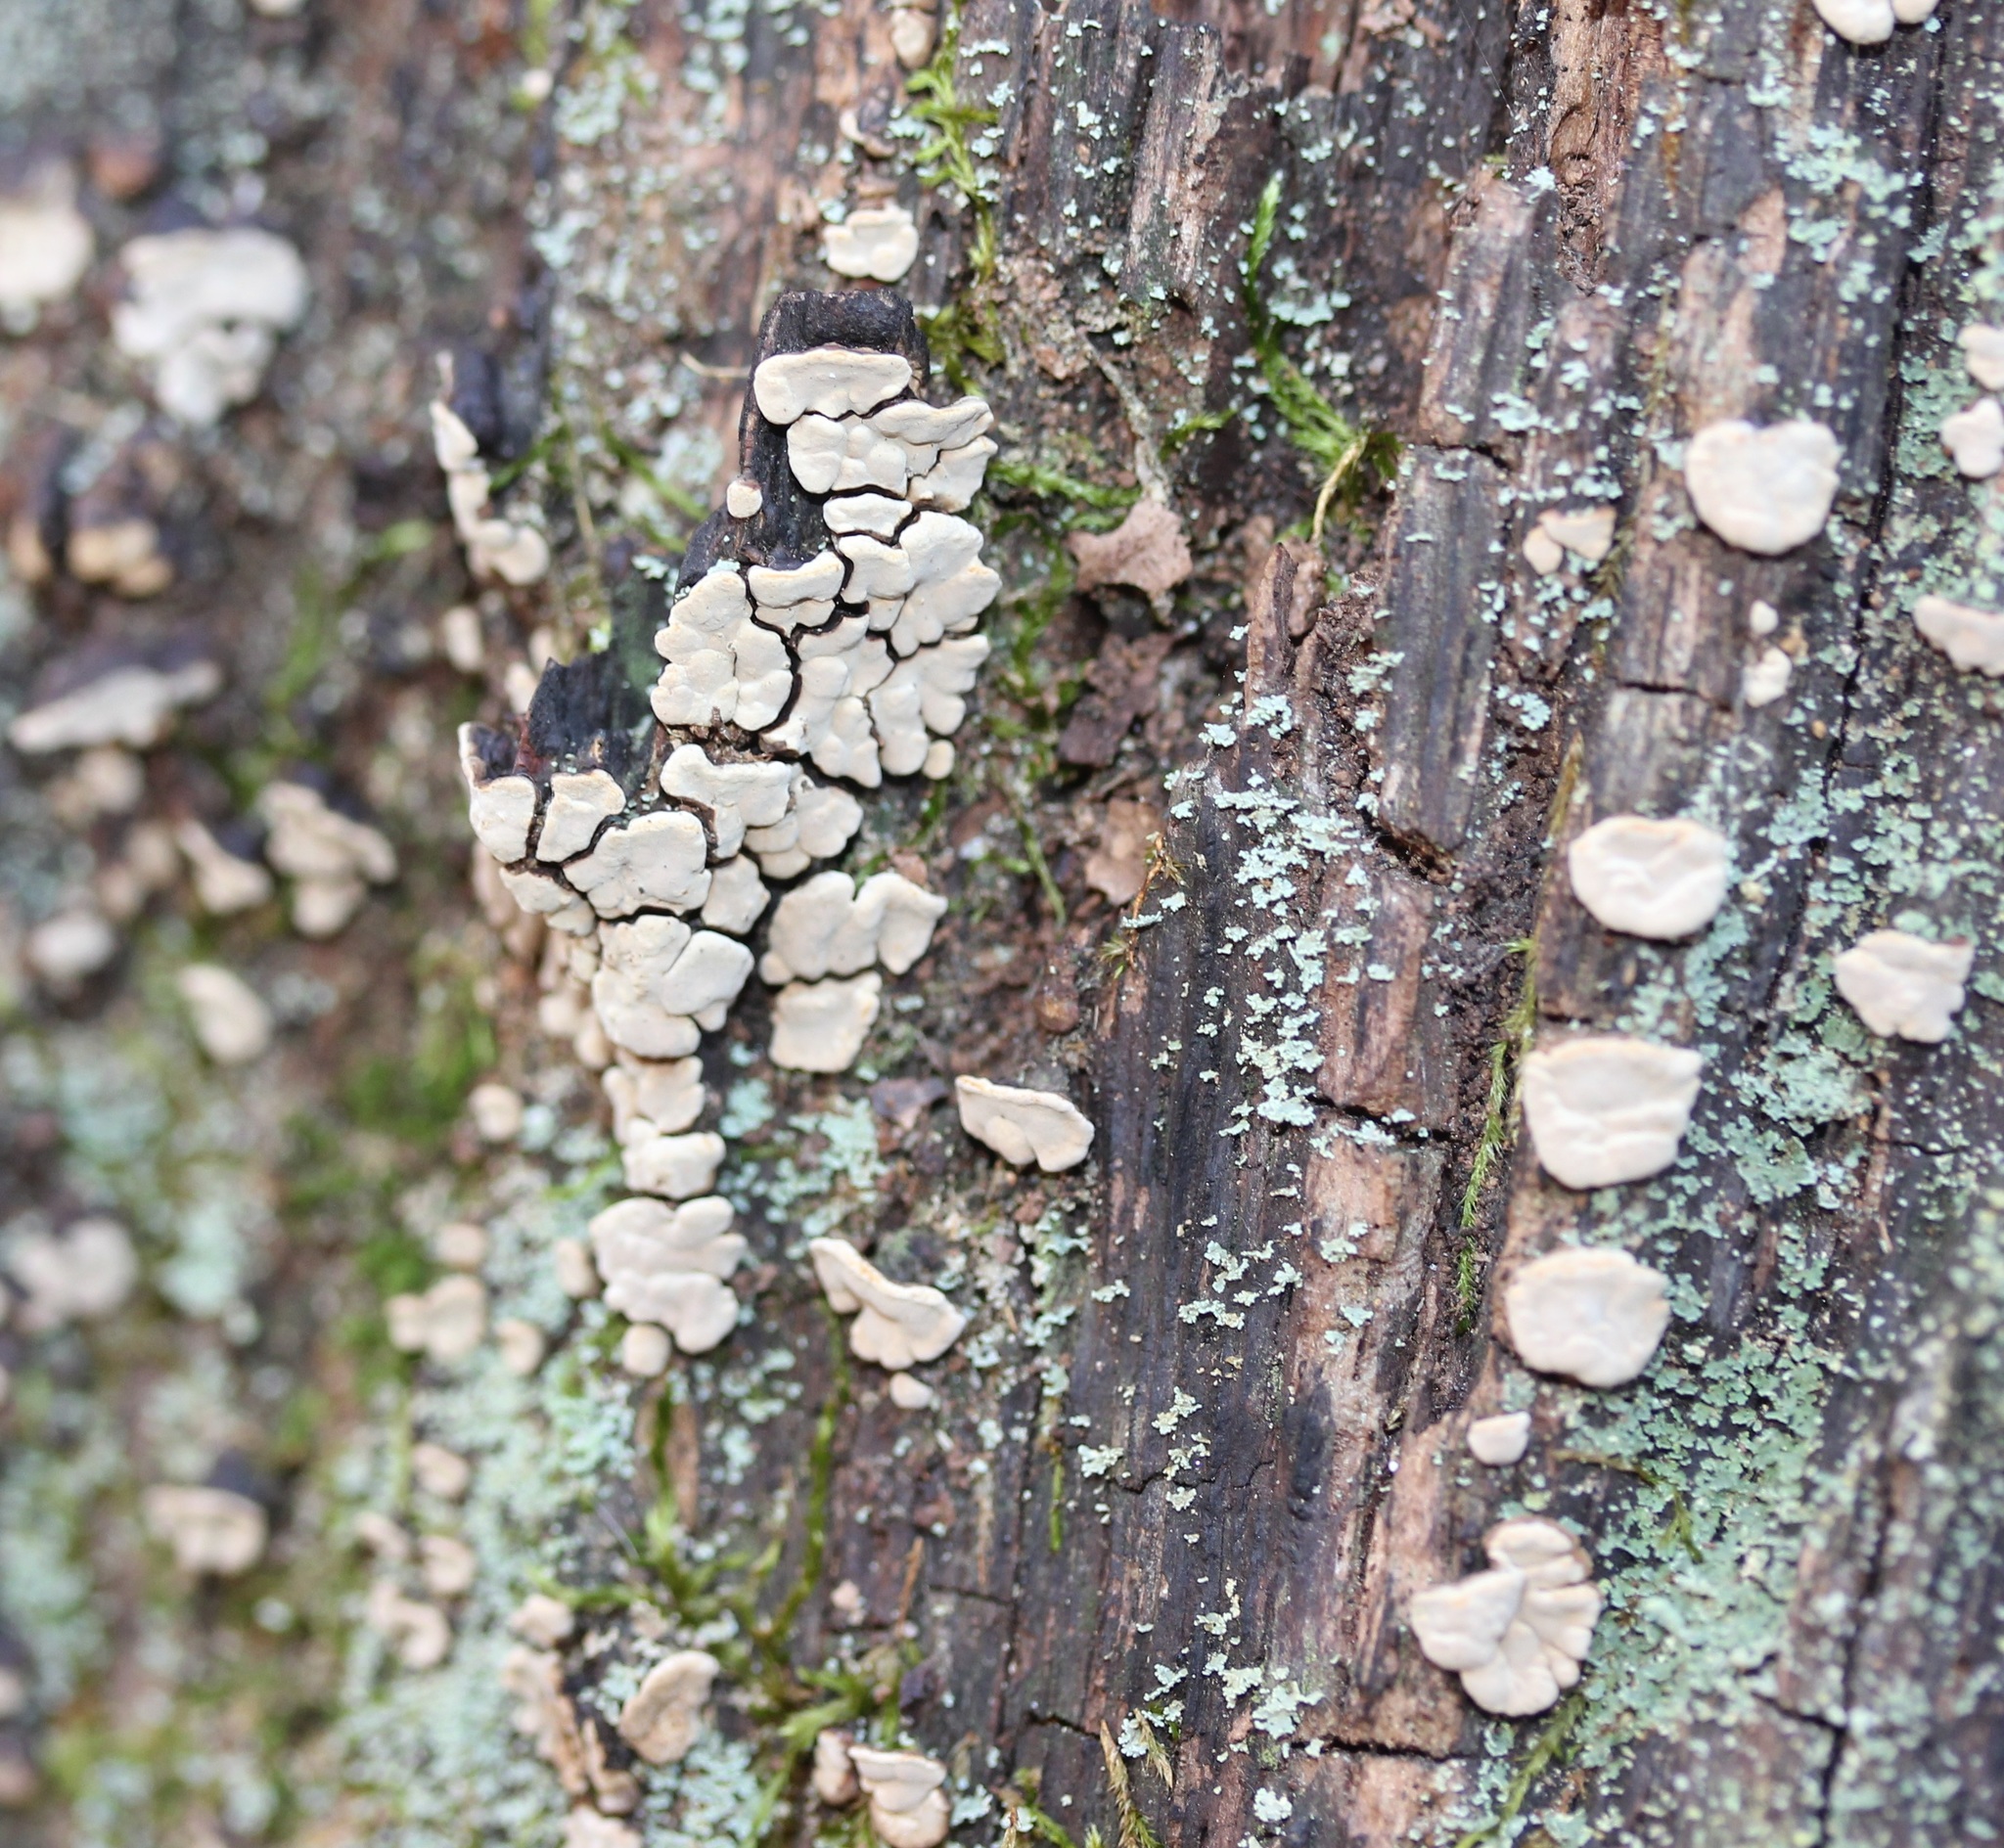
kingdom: Fungi
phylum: Basidiomycota
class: Agaricomycetes
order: Russulales
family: Stereaceae
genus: Xylobolus
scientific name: Xylobolus frustulatus
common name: Ceramic parchment
